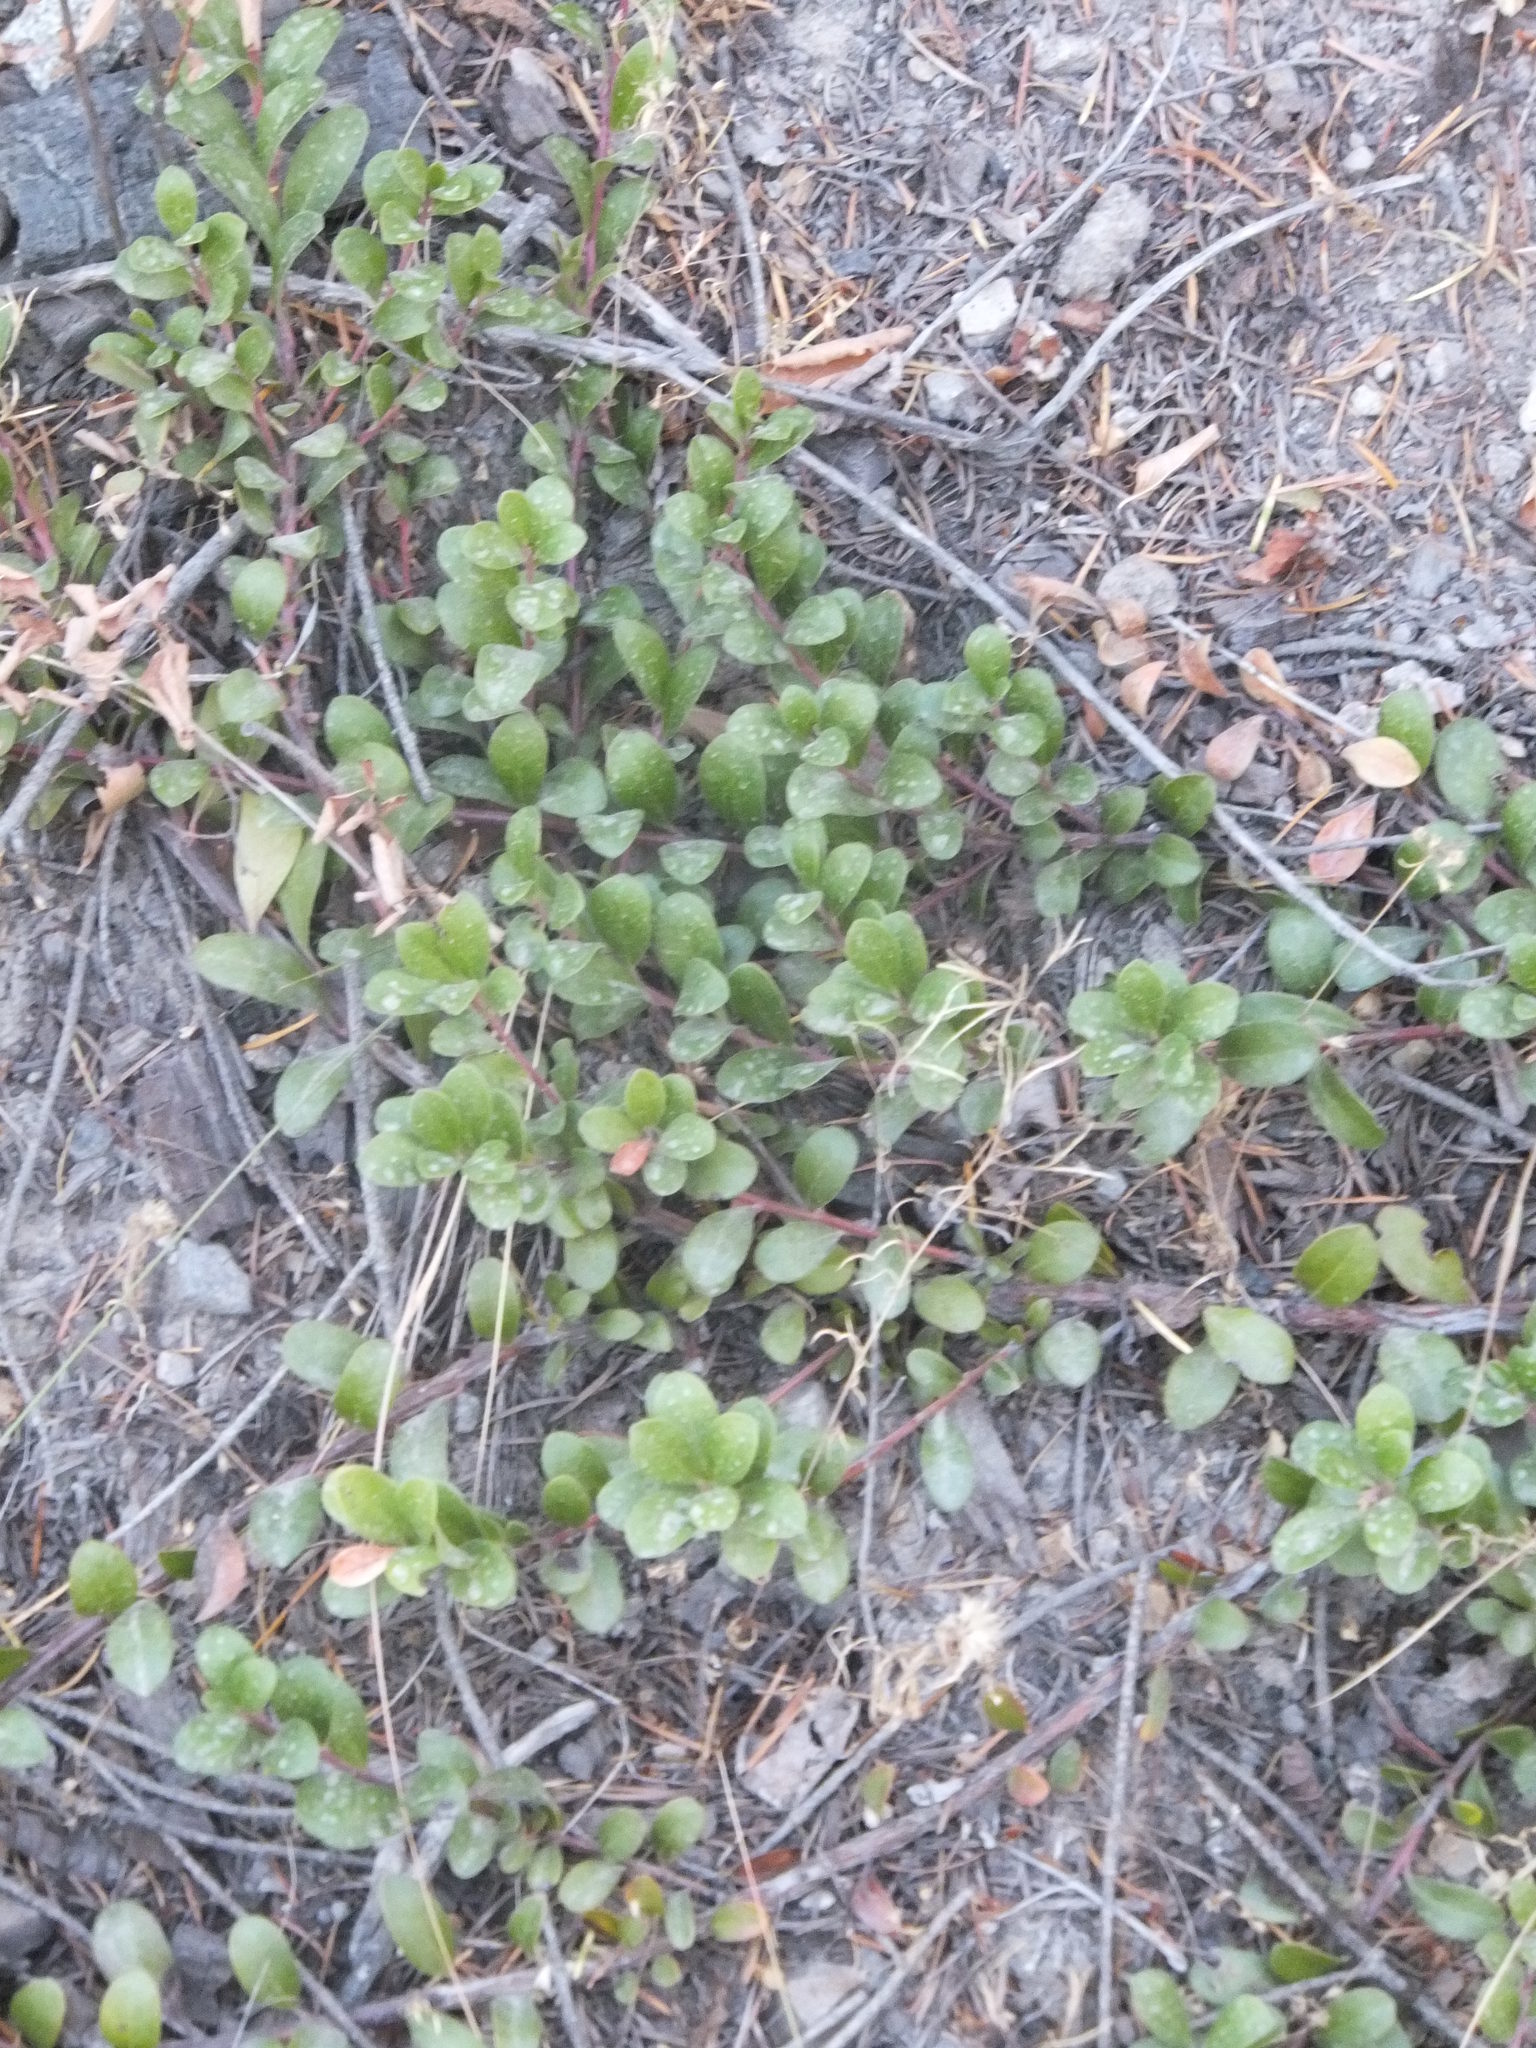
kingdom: Plantae
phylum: Tracheophyta
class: Magnoliopsida
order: Ericales
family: Ericaceae
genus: Arctostaphylos
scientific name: Arctostaphylos uva-ursi
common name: Bearberry
